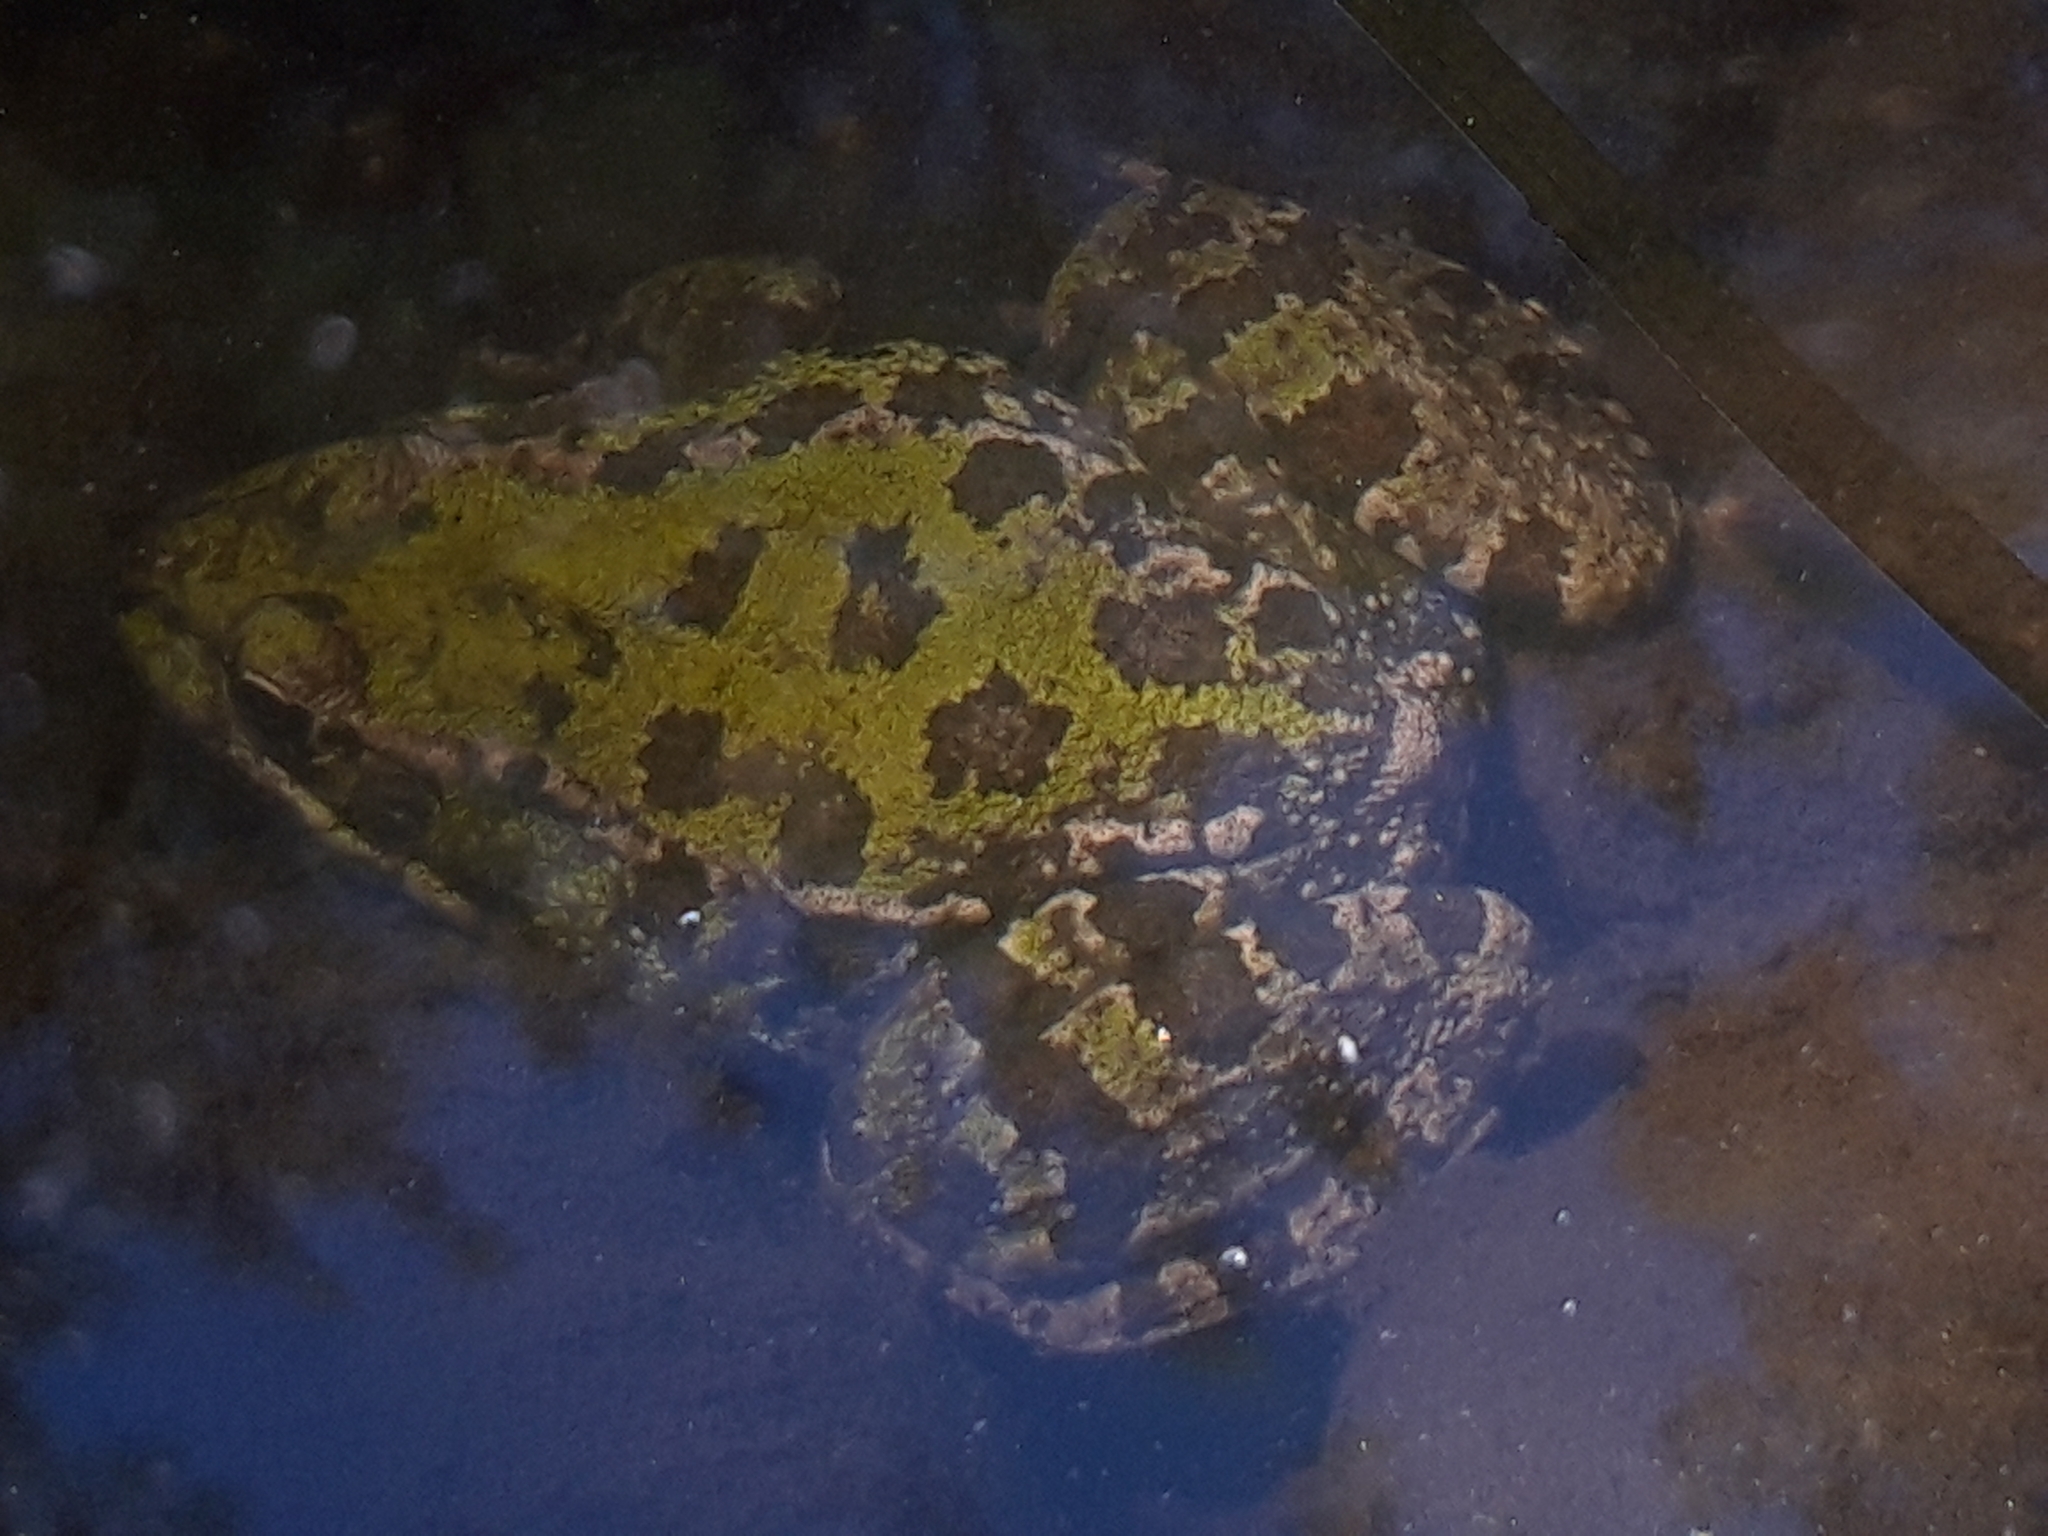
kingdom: Animalia
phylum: Chordata
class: Amphibia
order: Anura
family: Ranidae
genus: Pelophylax
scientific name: Pelophylax perezi
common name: Perez's frog
